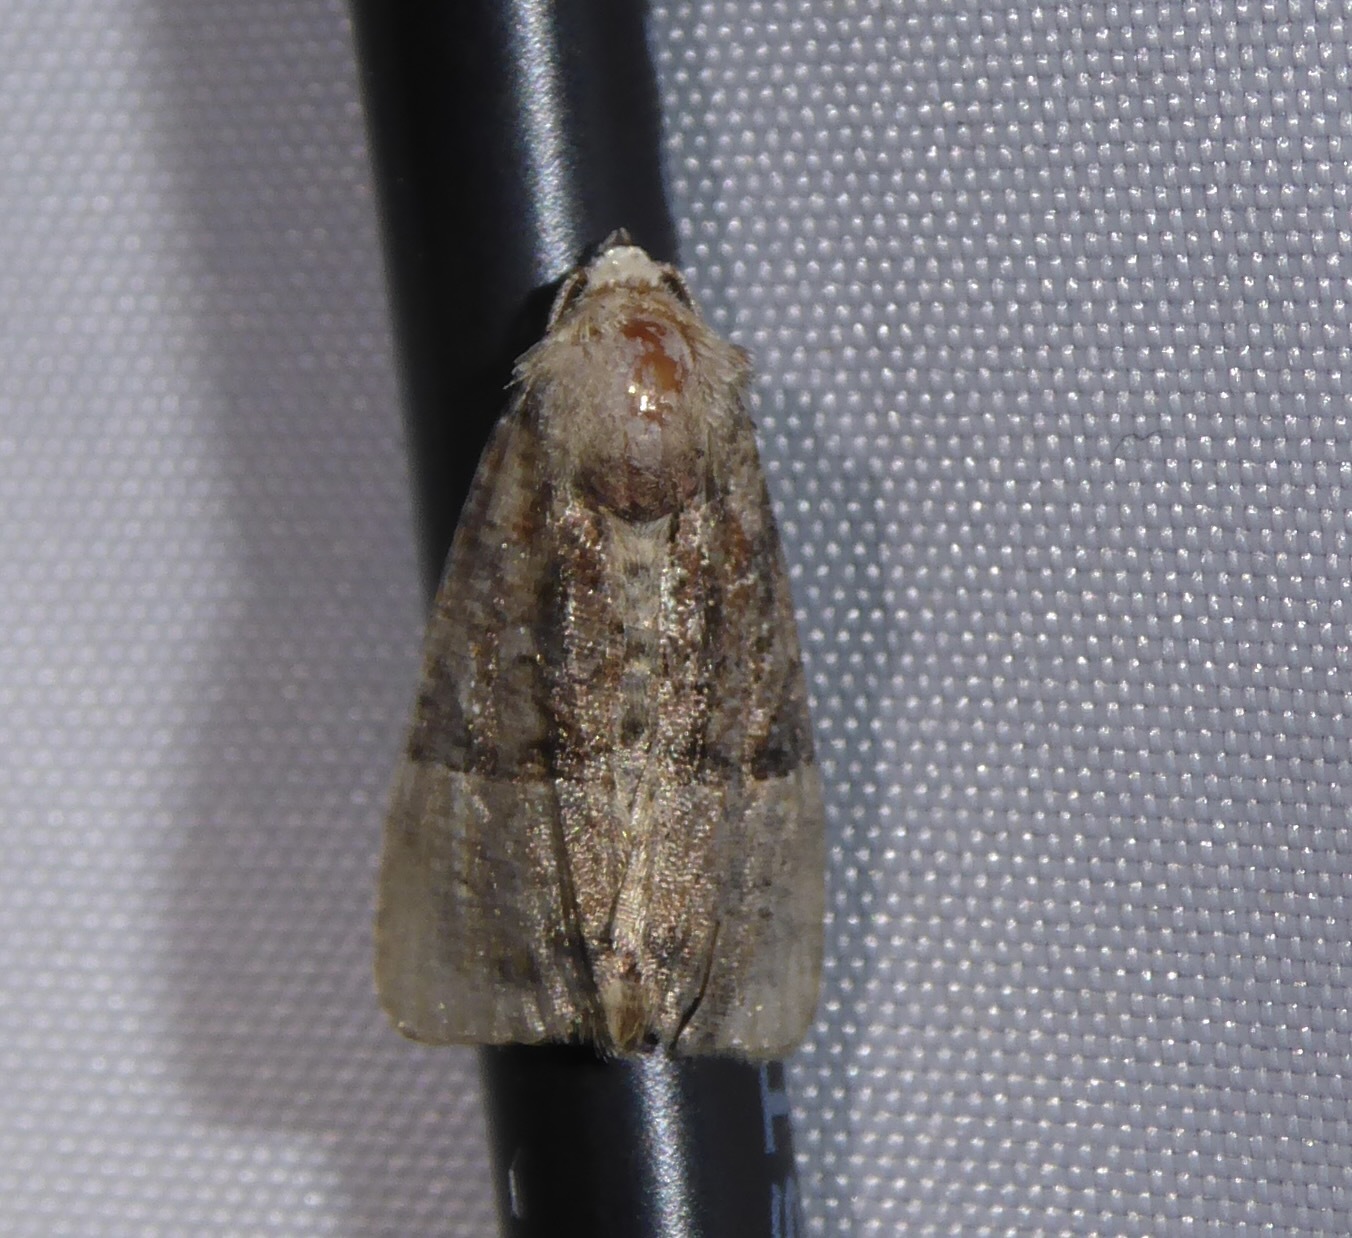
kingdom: Animalia
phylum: Arthropoda
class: Insecta
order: Lepidoptera
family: Noctuidae
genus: Mesoligia
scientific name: Mesoligia furuncula
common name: Cloaked minor
